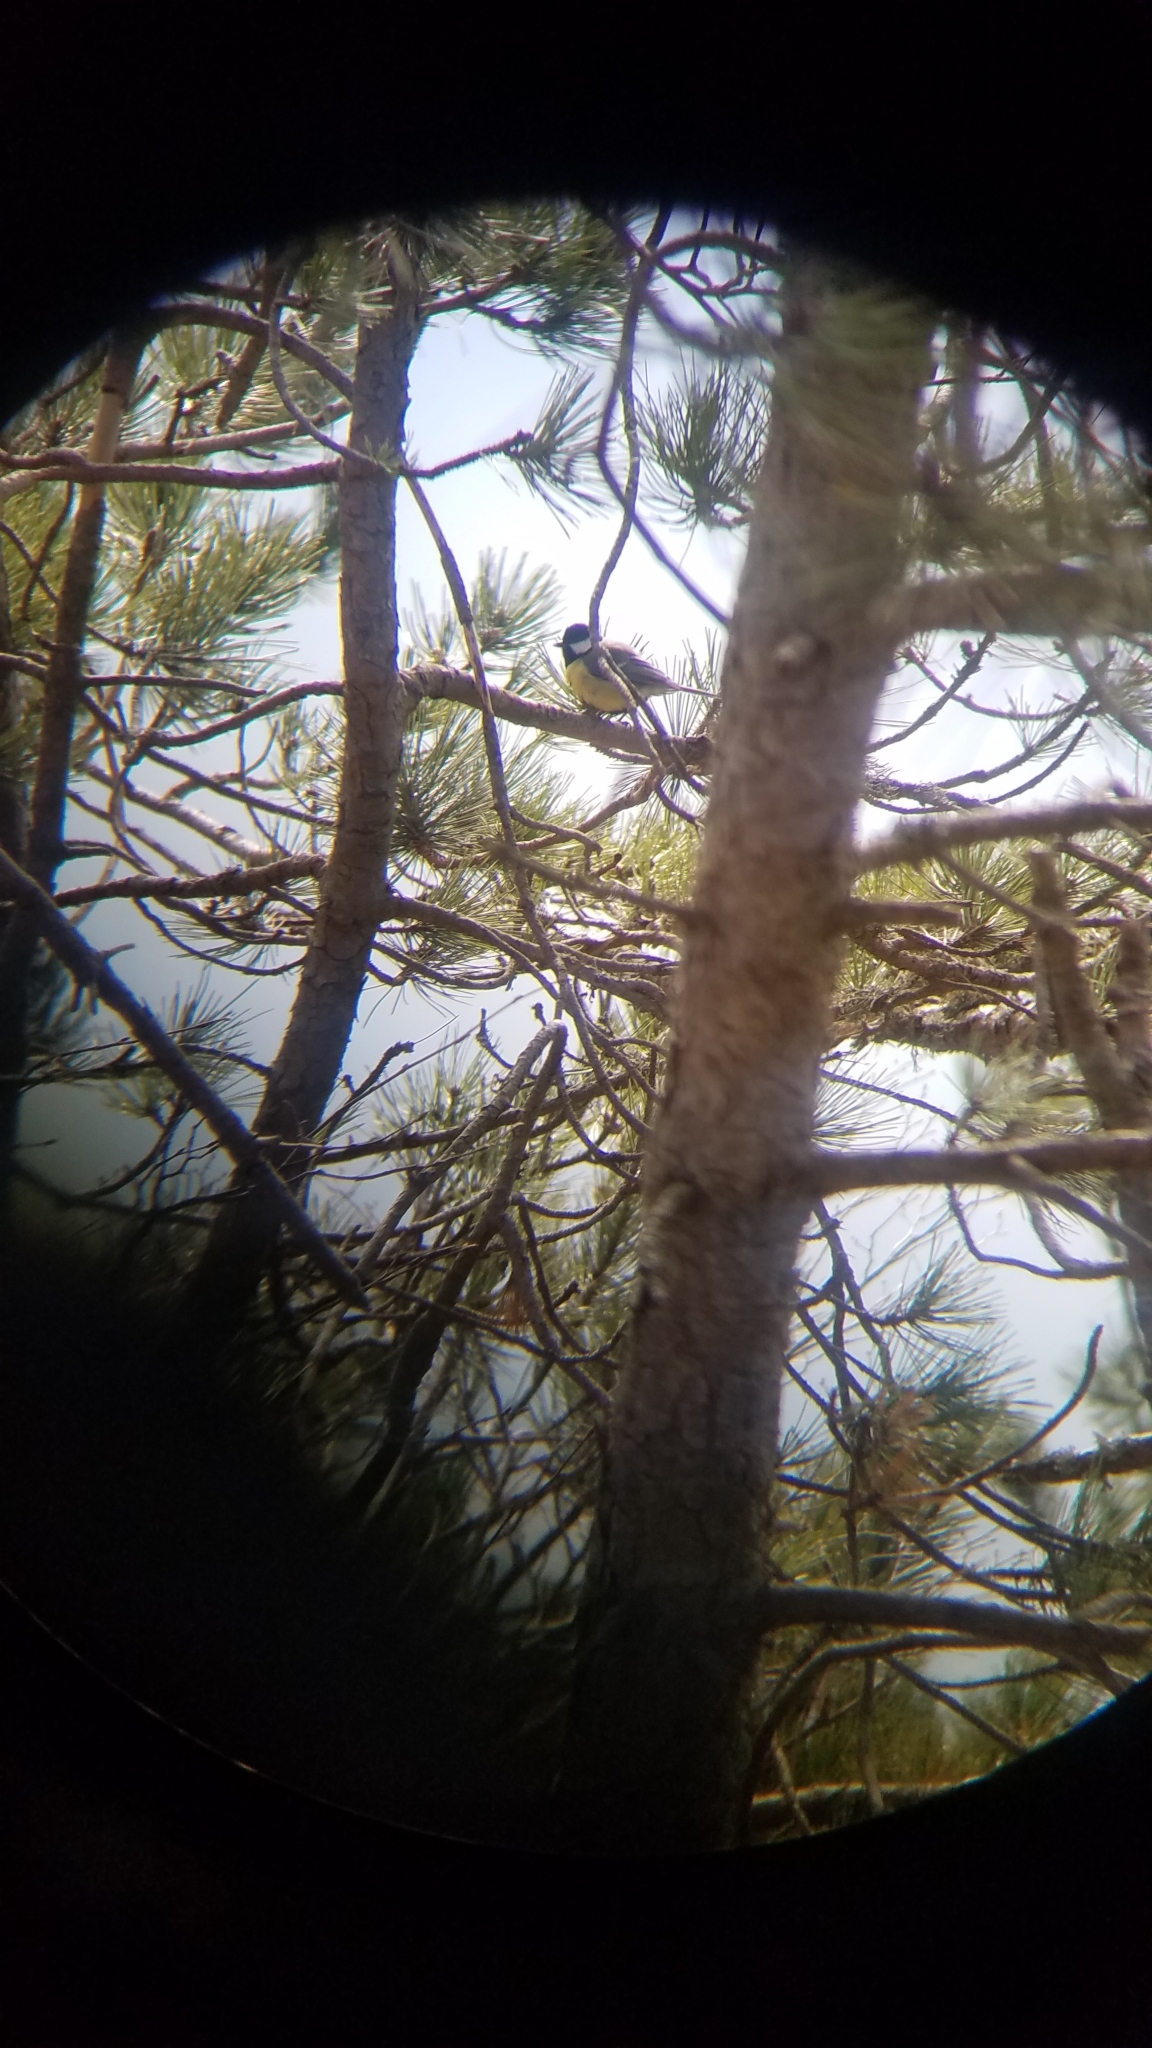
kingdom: Animalia
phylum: Chordata
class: Aves
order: Passeriformes
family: Paridae
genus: Parus
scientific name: Parus major
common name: Great tit
